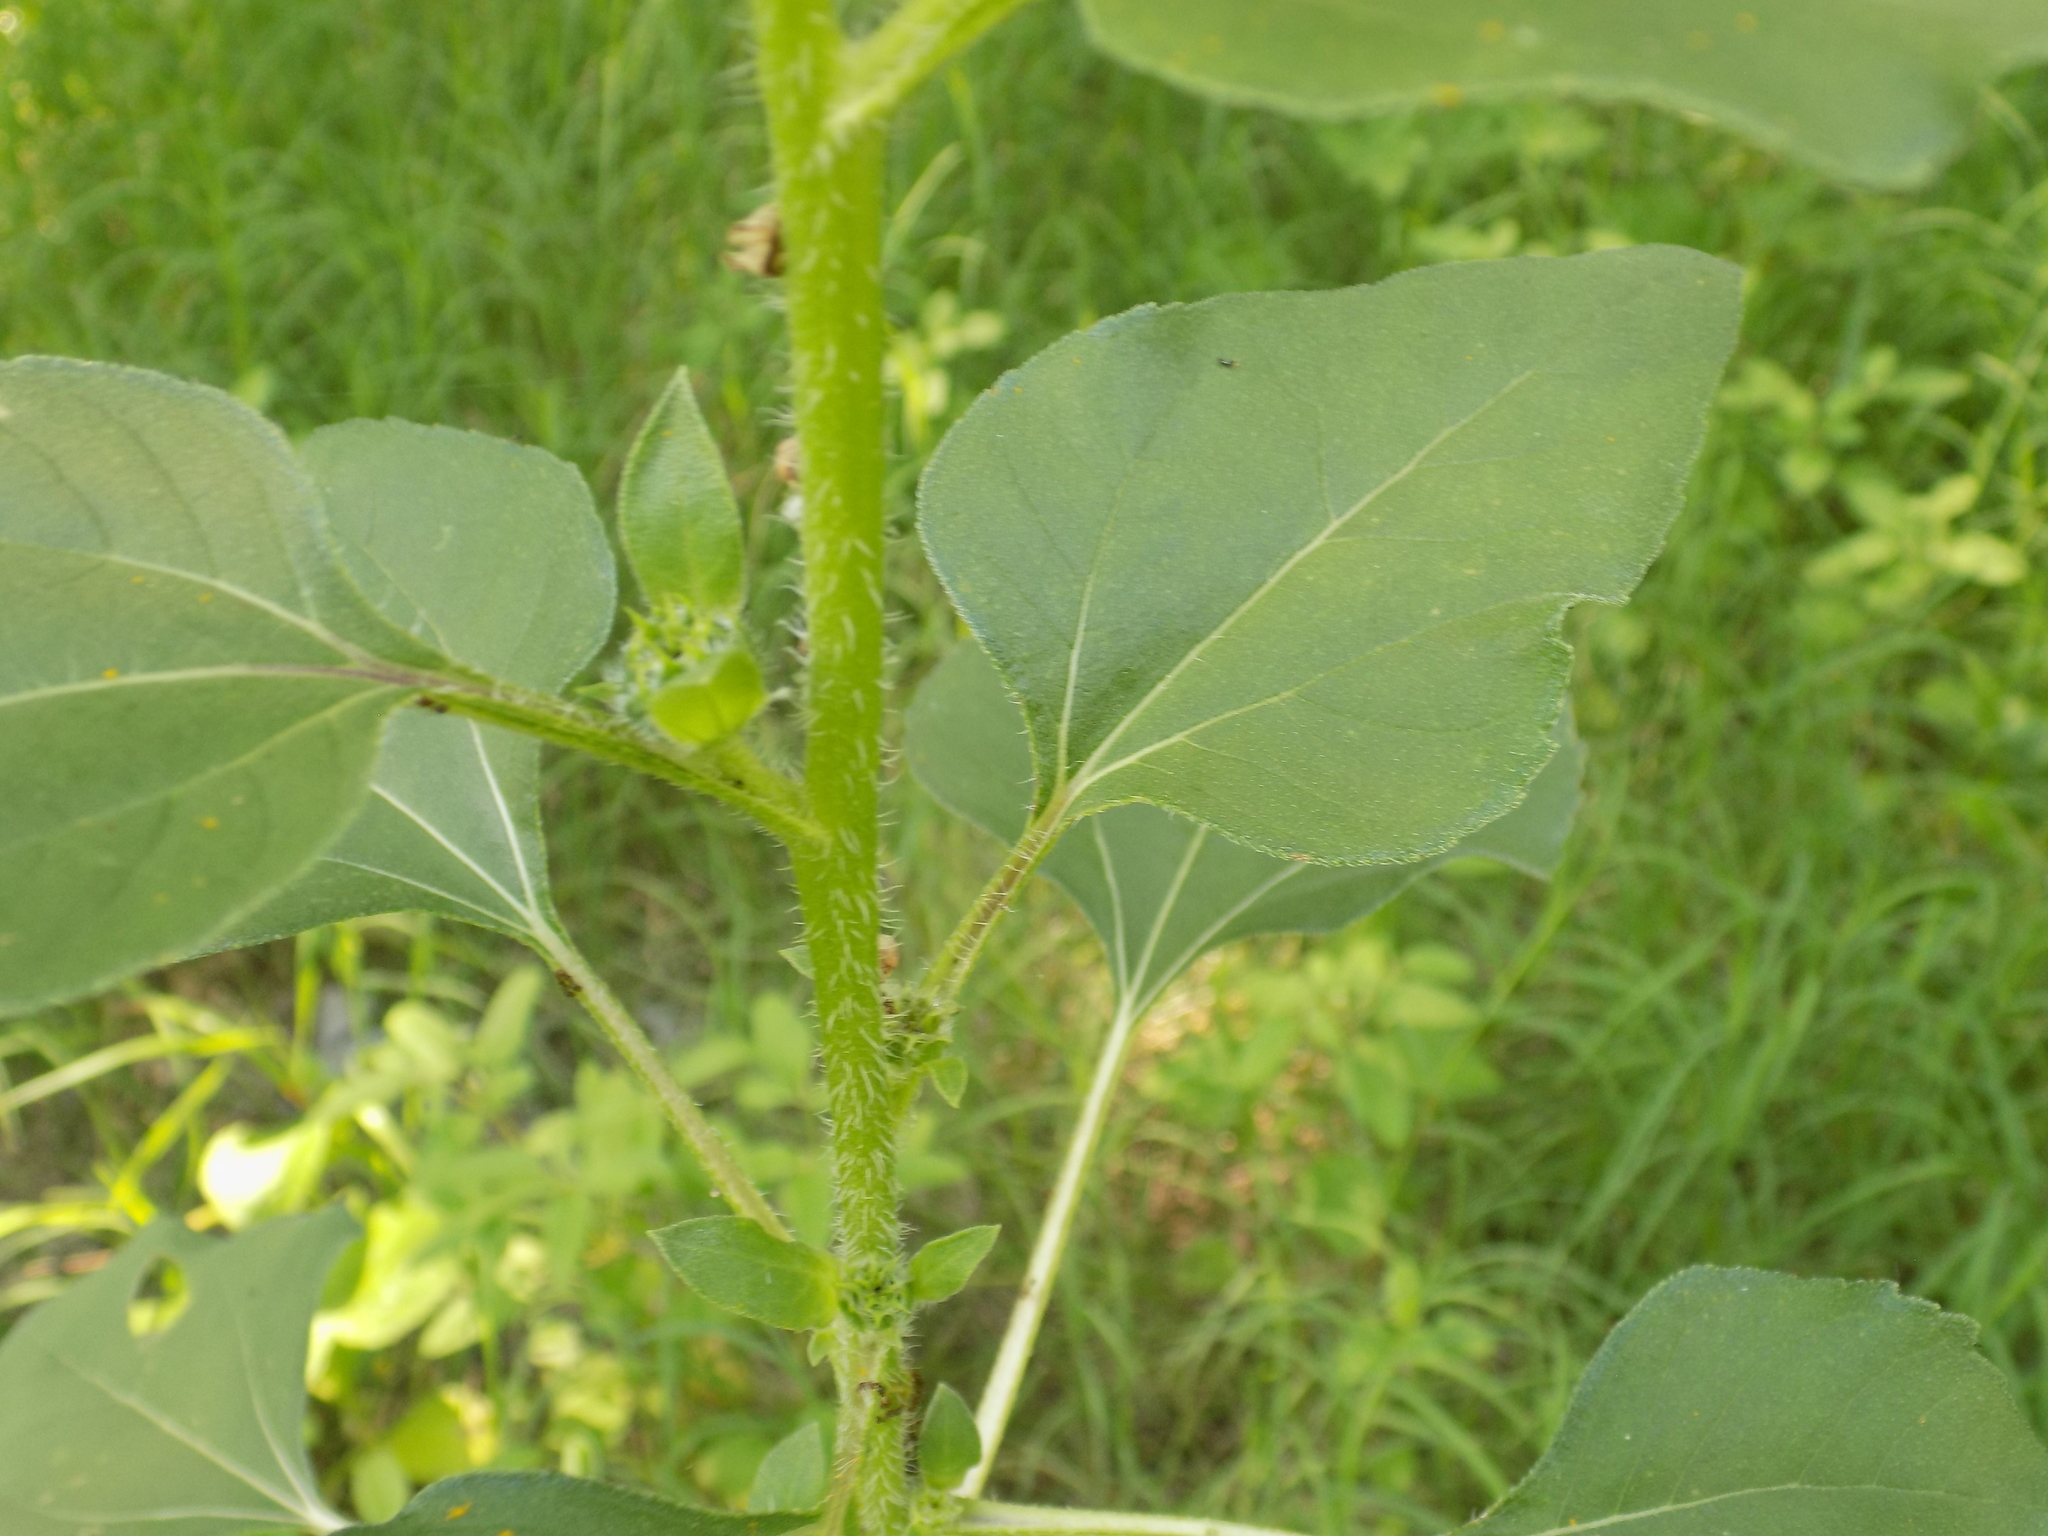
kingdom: Plantae
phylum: Tracheophyta
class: Magnoliopsida
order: Asterales
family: Asteraceae
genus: Helianthus
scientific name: Helianthus annuus
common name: Sunflower
